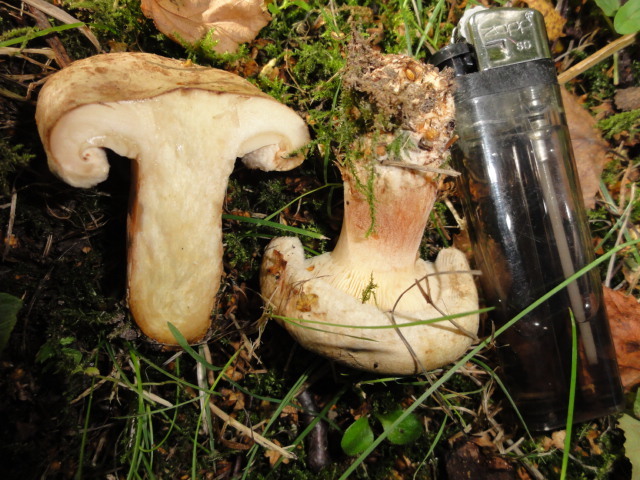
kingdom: Fungi
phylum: Basidiomycota
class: Agaricomycetes
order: Boletales
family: Paxillaceae
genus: Paxillus
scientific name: Paxillus involutus
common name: Brown roll rim
